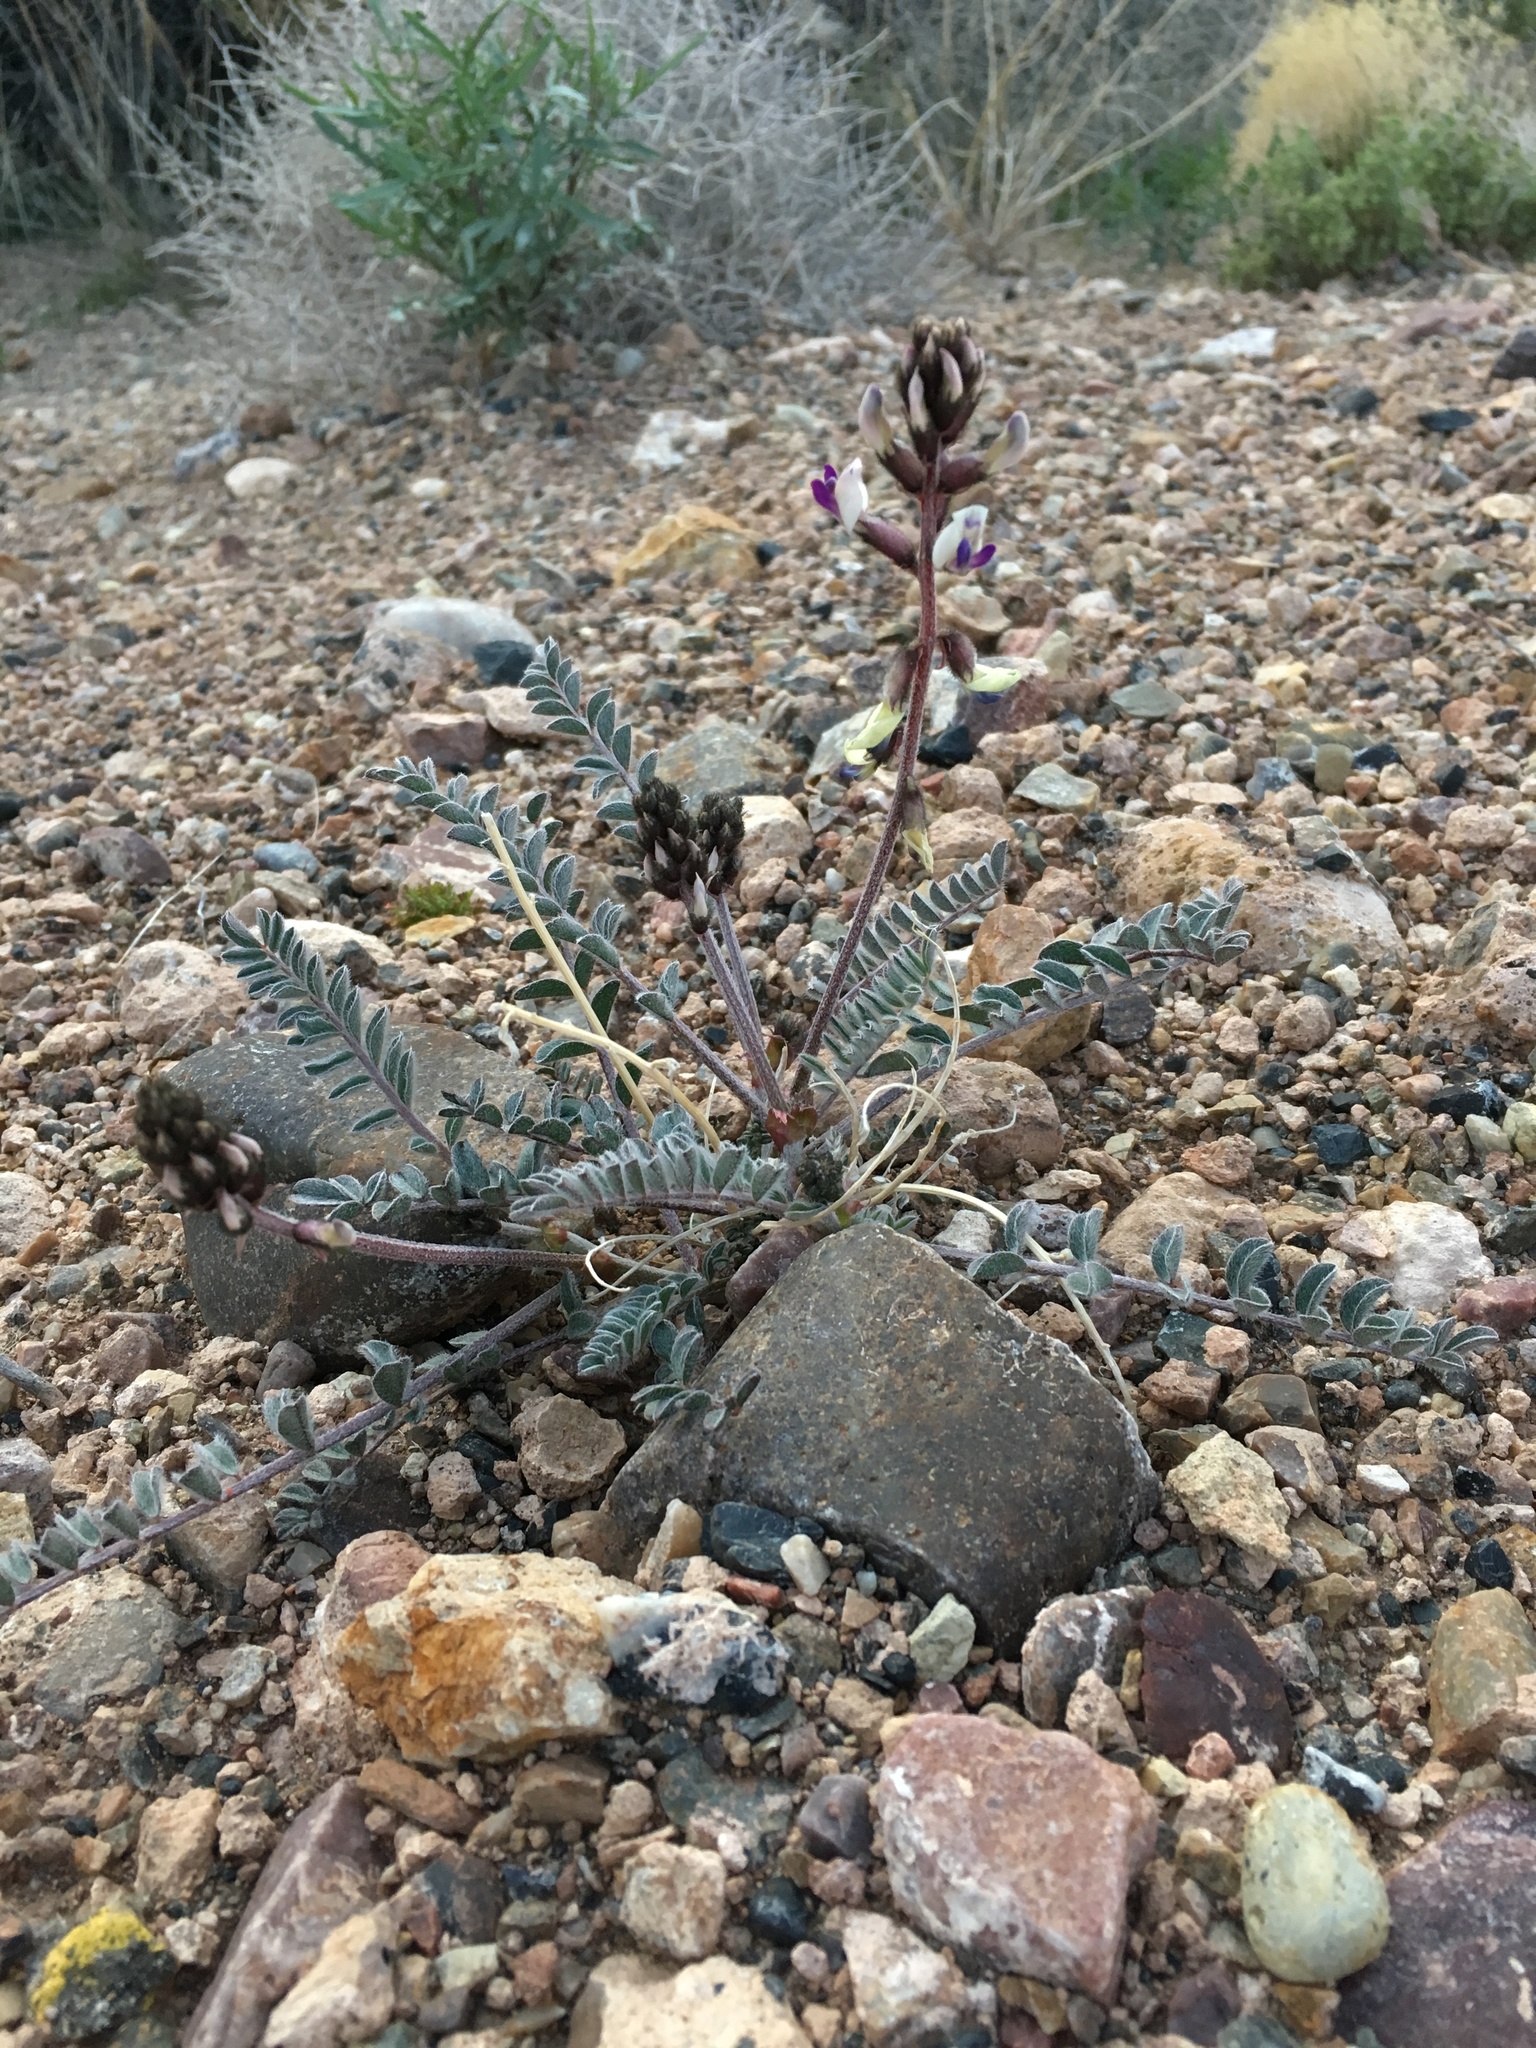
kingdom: Plantae
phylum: Tracheophyta
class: Magnoliopsida
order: Fabales
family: Fabaceae
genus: Astragalus
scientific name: Astragalus layneae
